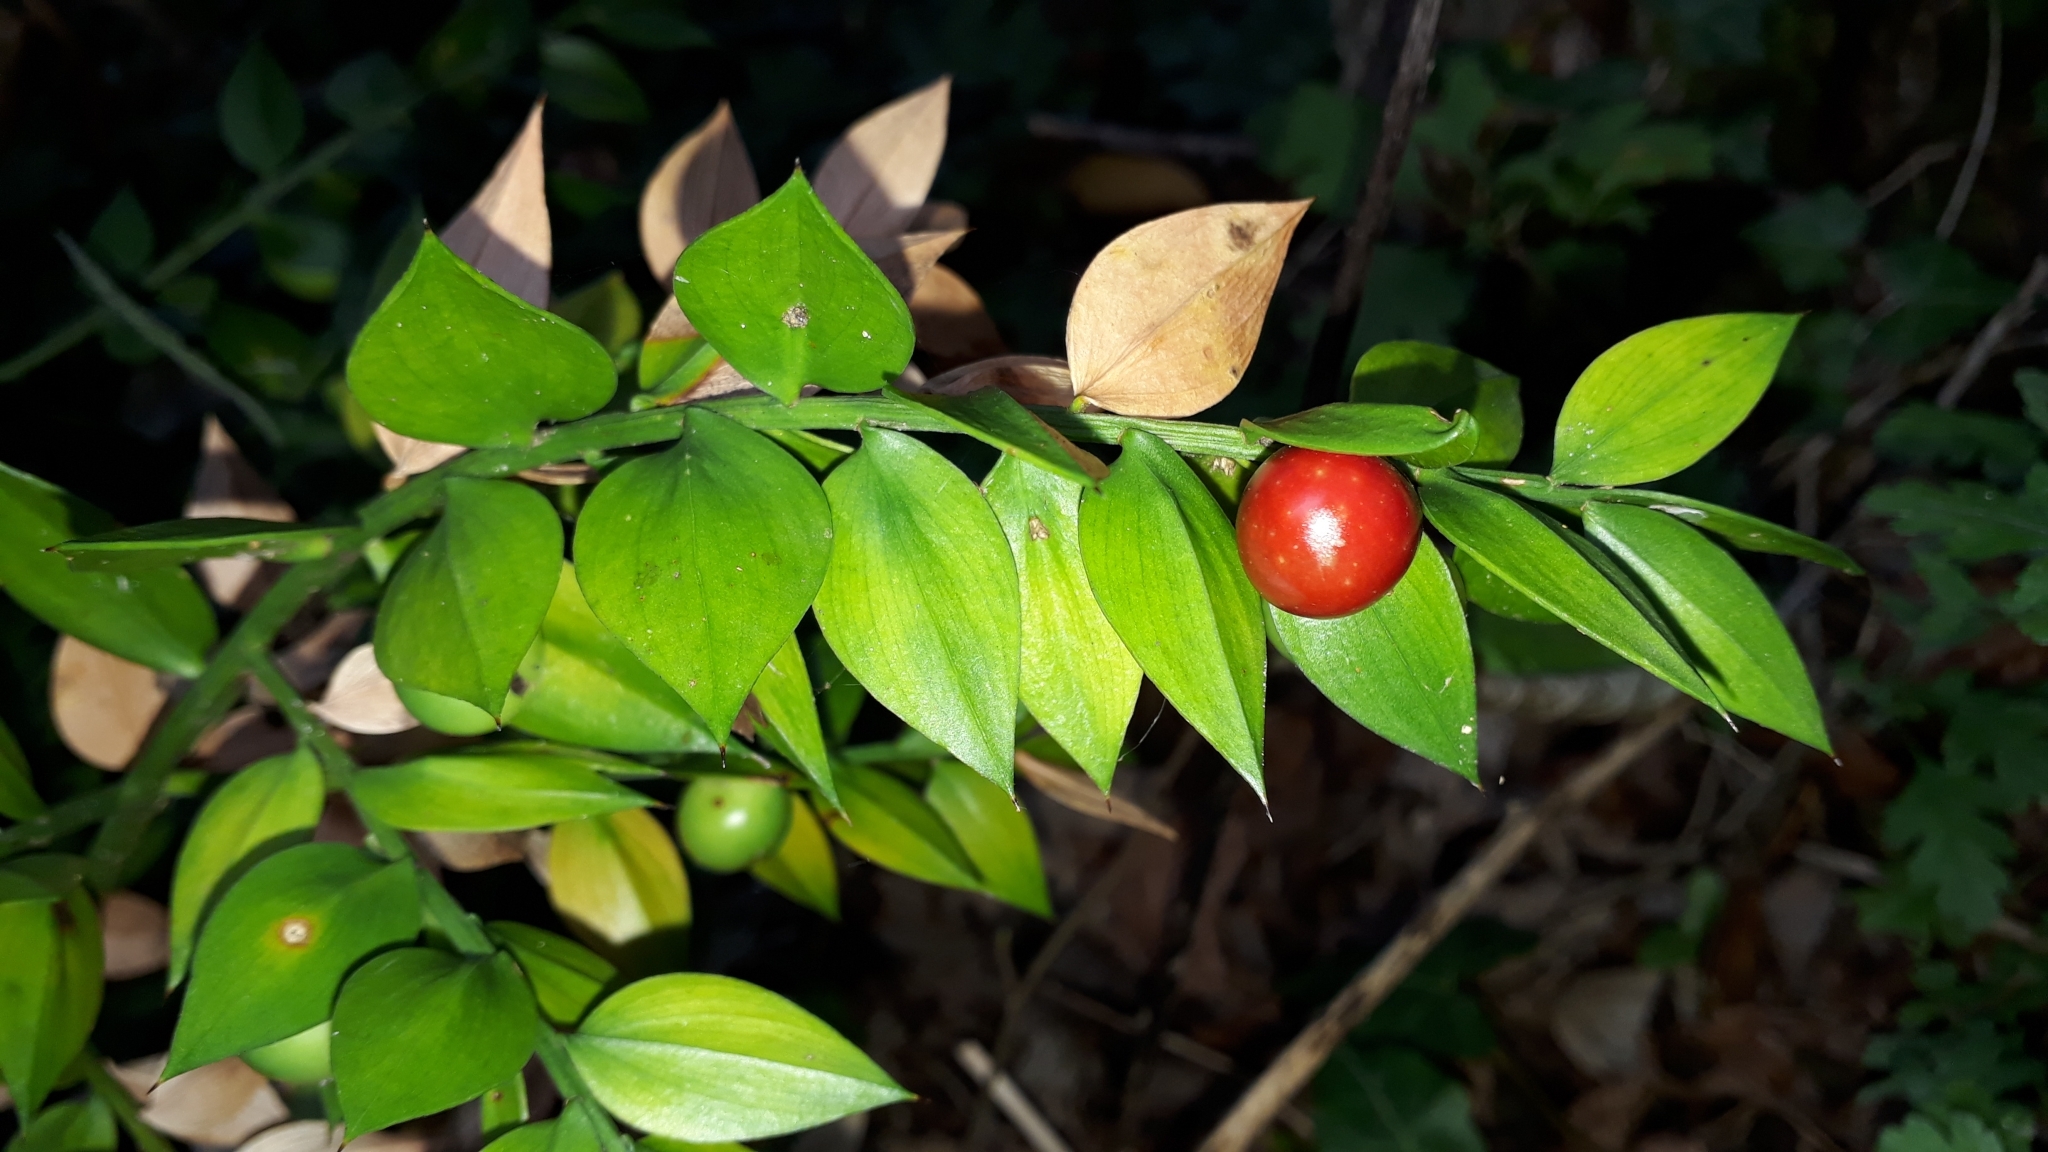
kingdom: Plantae
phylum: Tracheophyta
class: Liliopsida
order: Asparagales
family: Asparagaceae
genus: Ruscus
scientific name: Ruscus aculeatus
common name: Butcher's-broom
